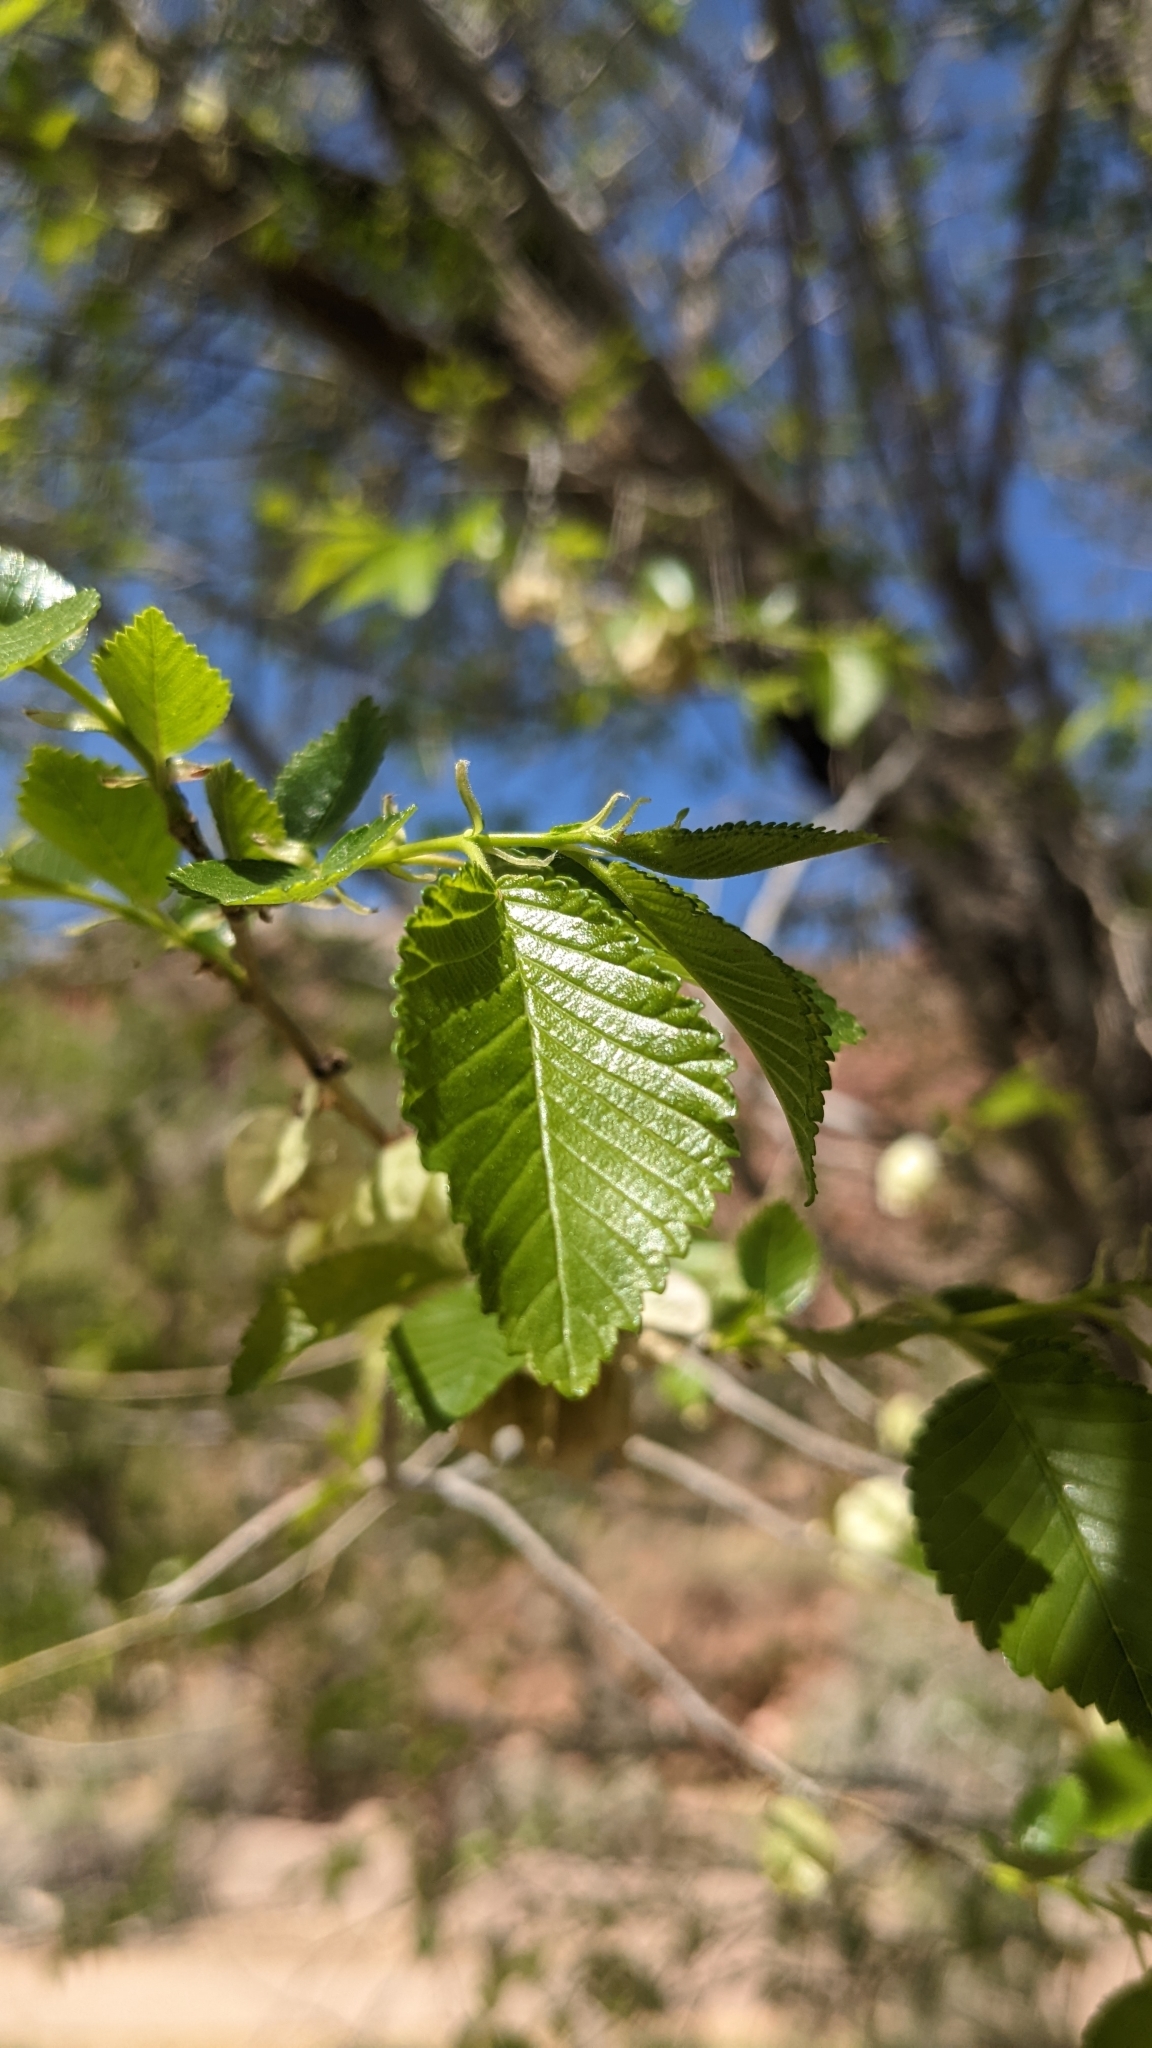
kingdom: Plantae
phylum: Tracheophyta
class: Magnoliopsida
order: Rosales
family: Ulmaceae
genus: Ulmus
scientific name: Ulmus pumila
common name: Siberian elm
